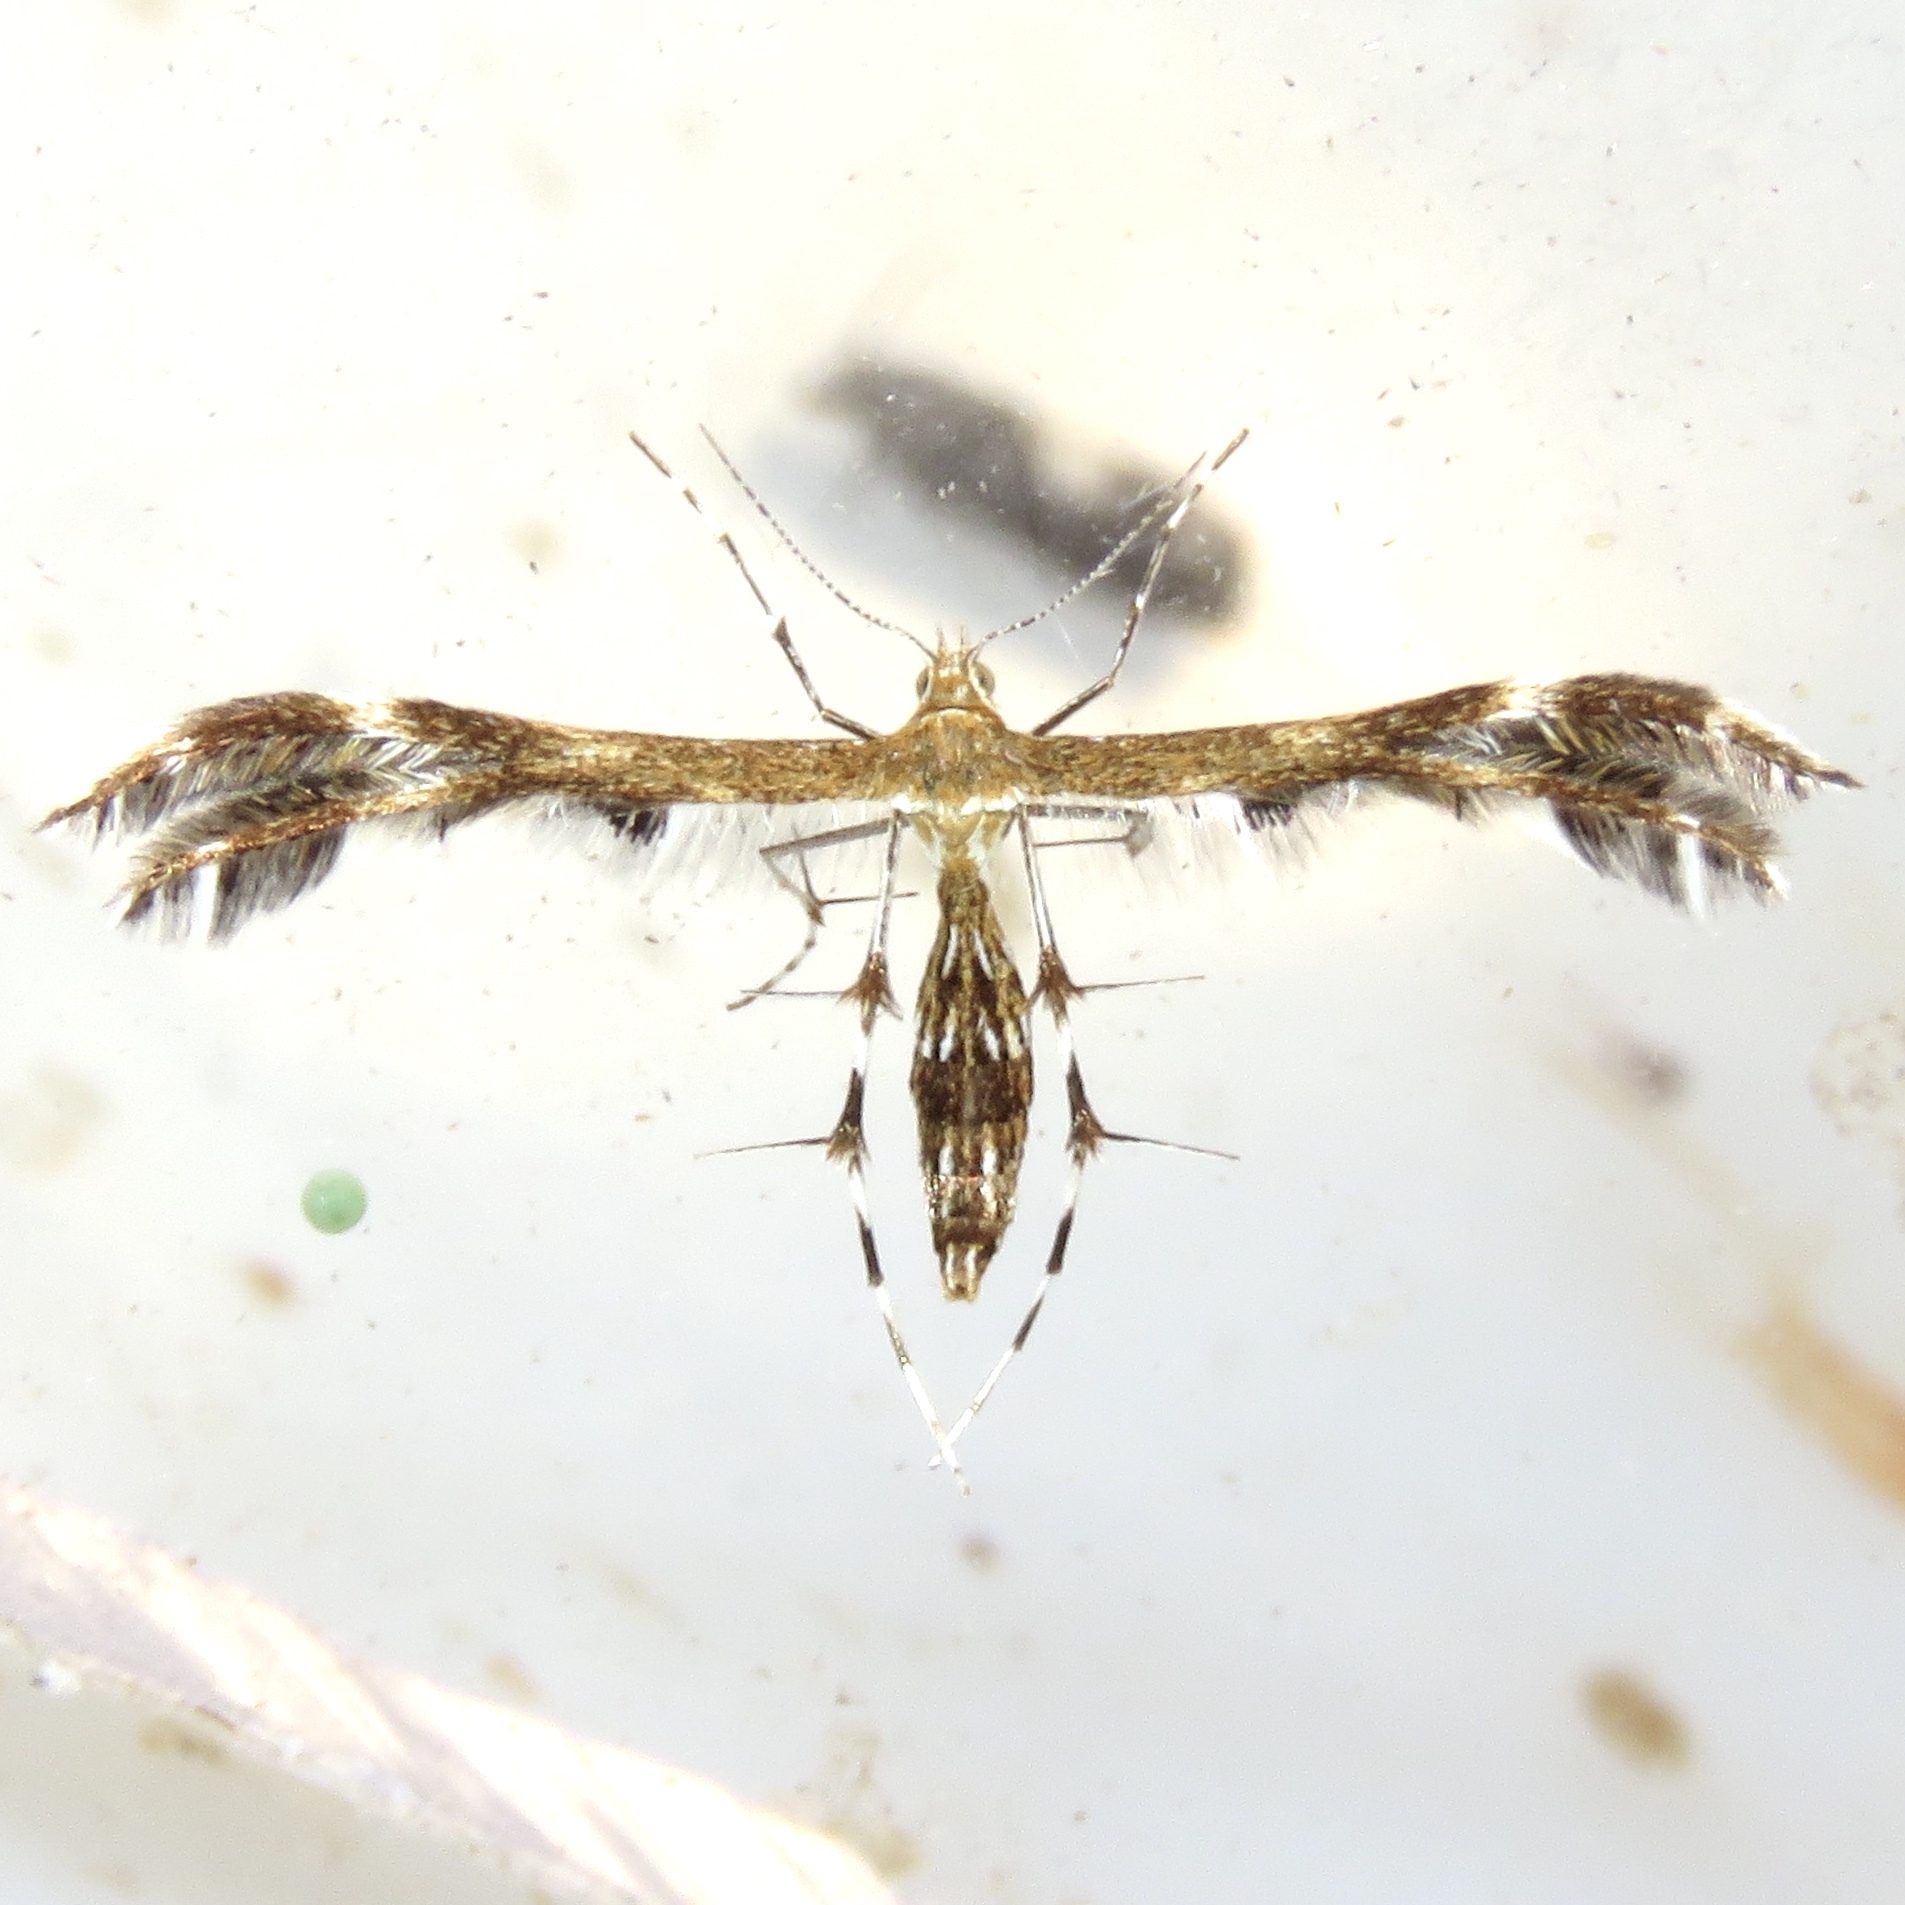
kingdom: Animalia
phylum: Arthropoda
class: Insecta
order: Lepidoptera
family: Pterophoridae
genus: Dejongia
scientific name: Dejongia lobidactylus
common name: Lobed plume moth
